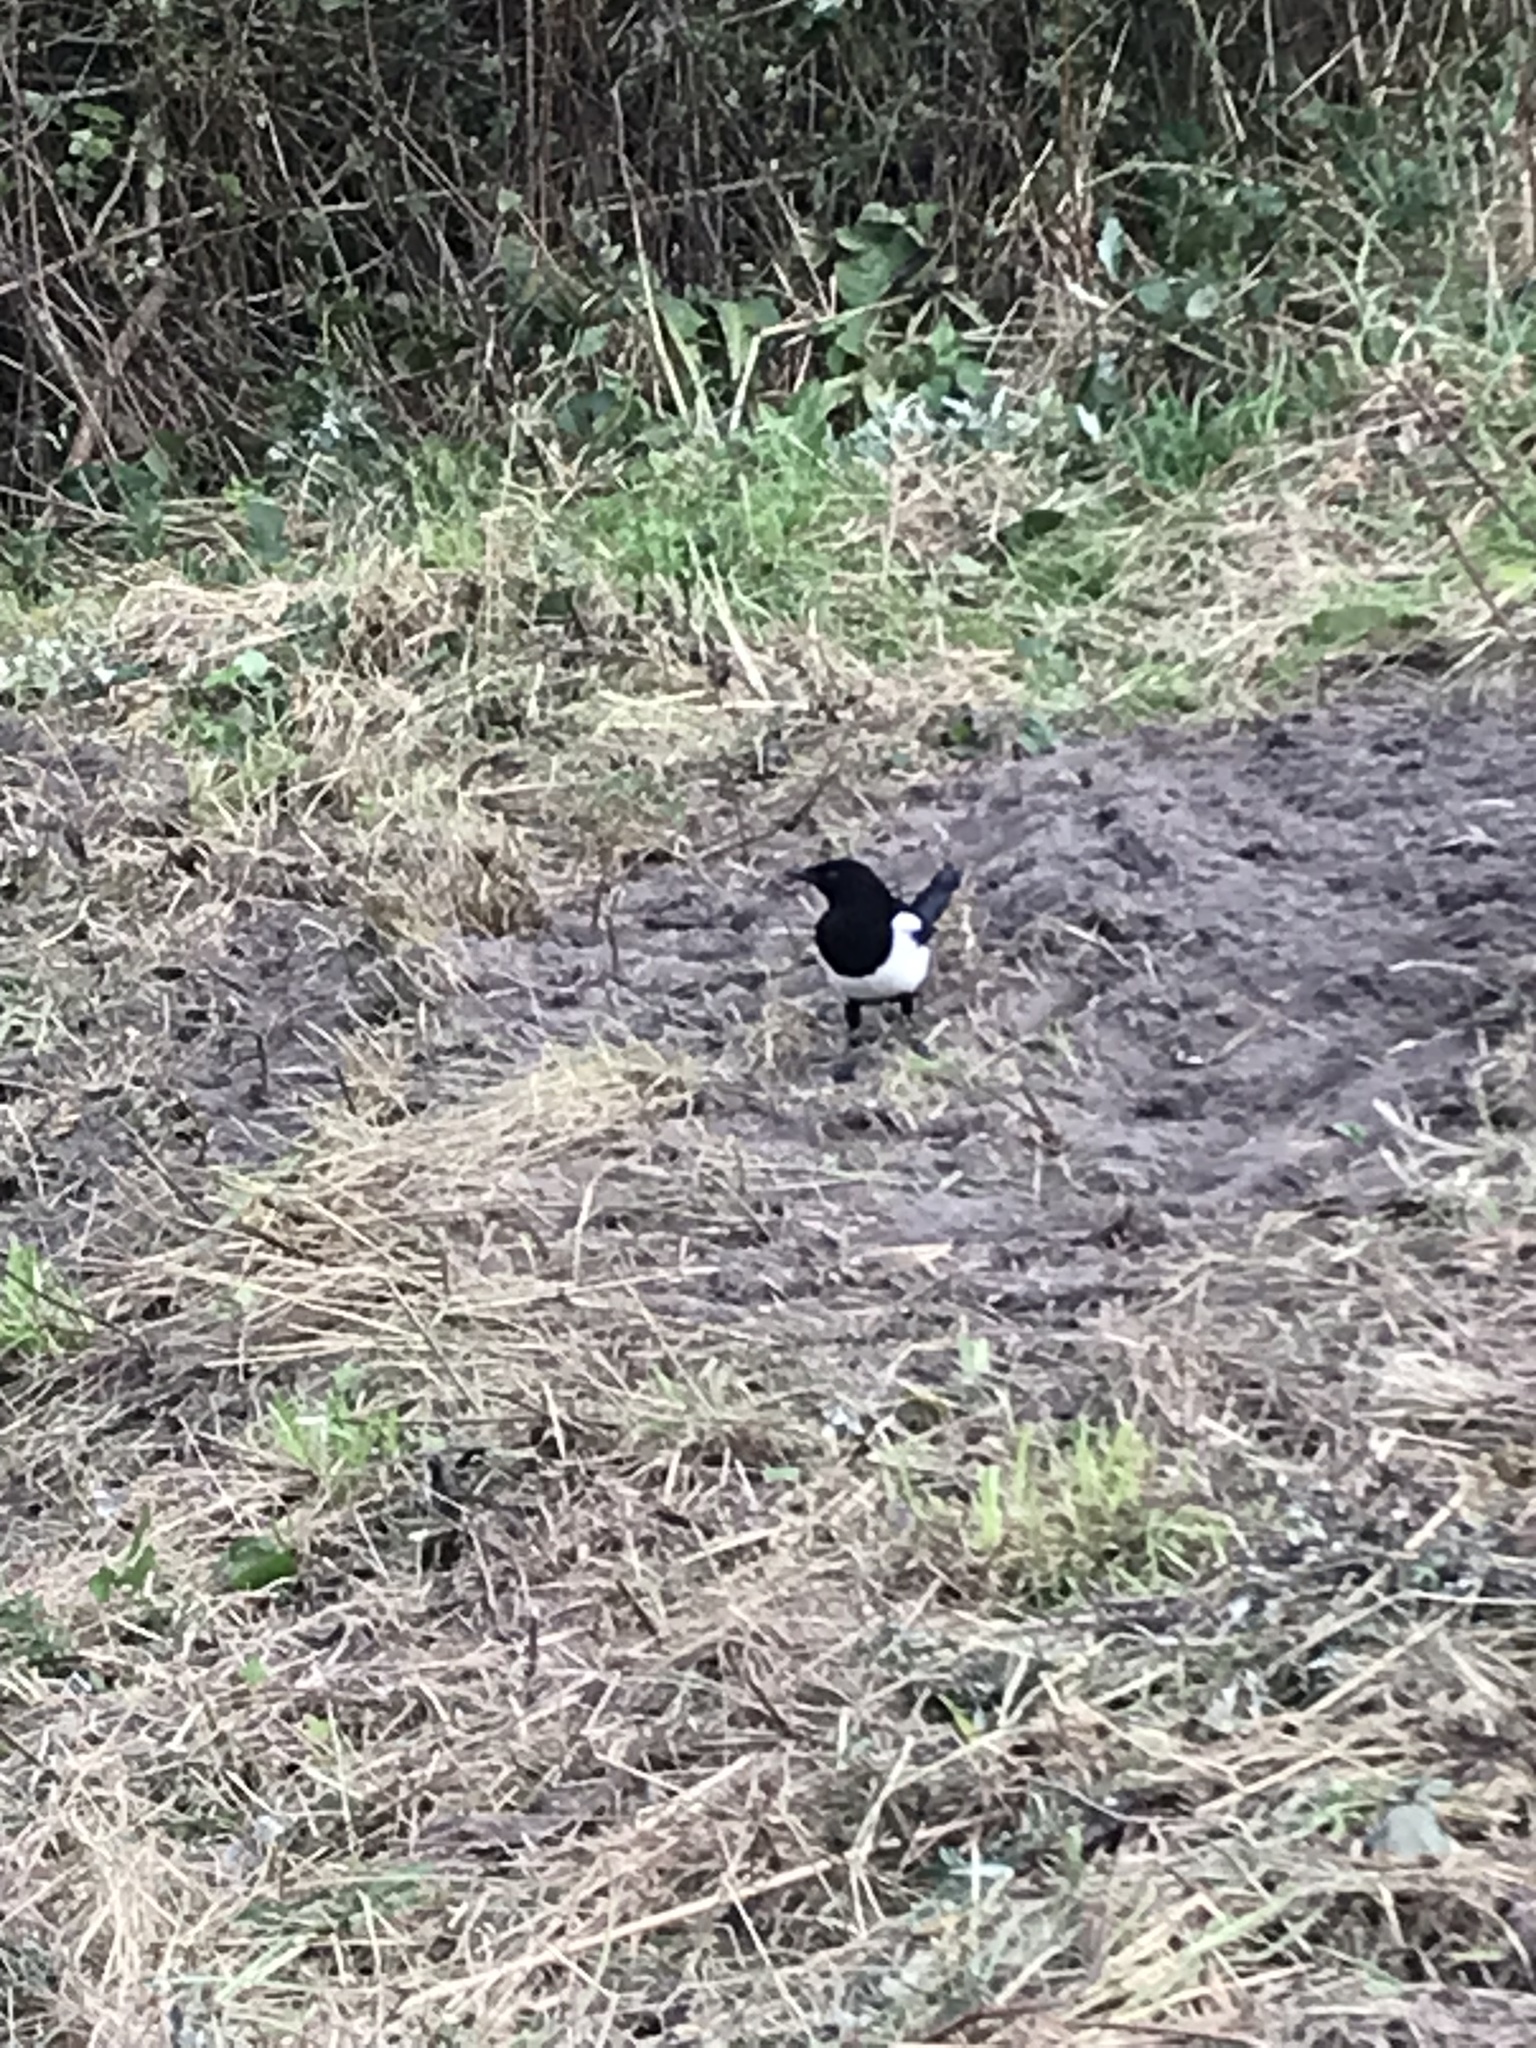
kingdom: Animalia
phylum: Chordata
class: Aves
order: Passeriformes
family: Corvidae
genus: Pica
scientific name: Pica pica
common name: Eurasian magpie
